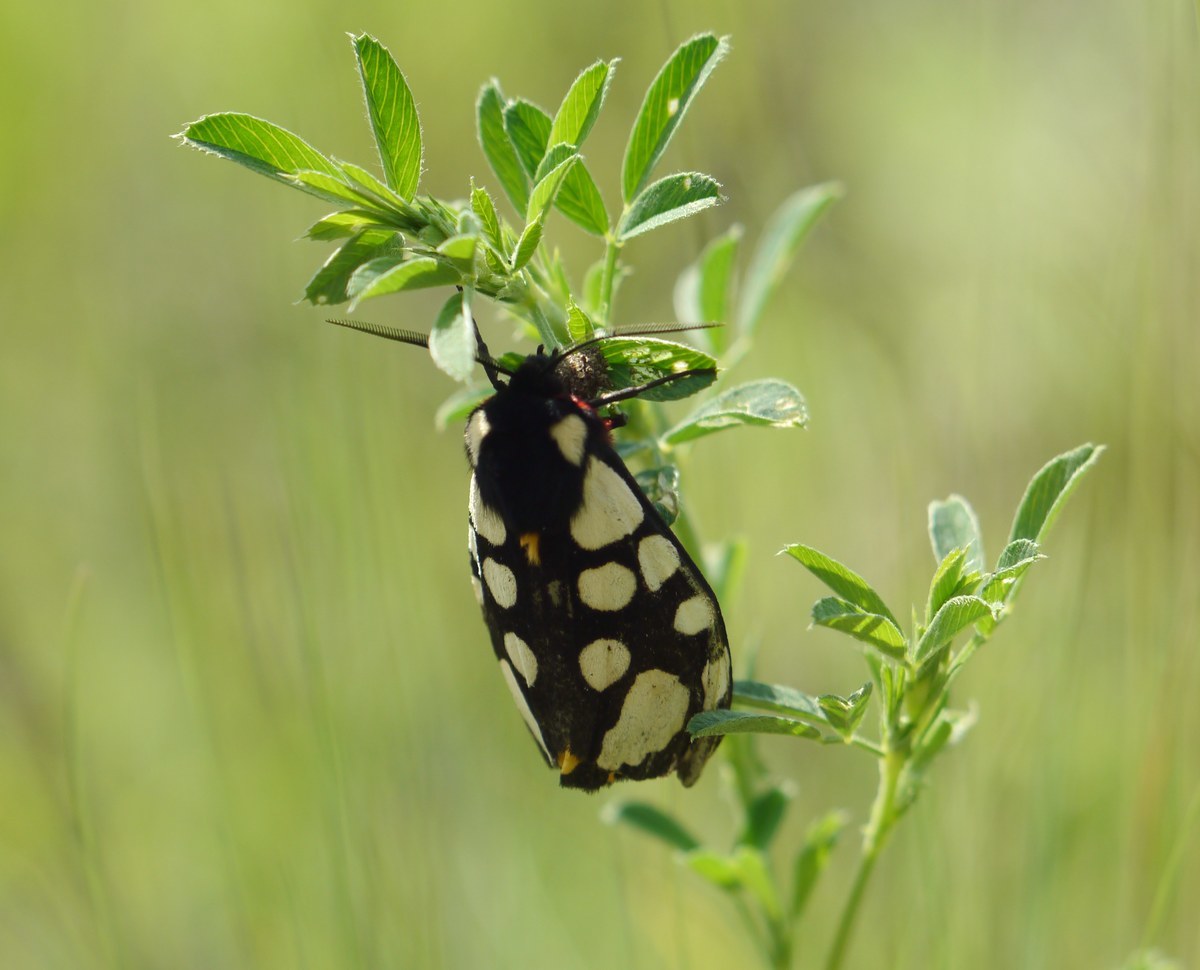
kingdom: Animalia
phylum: Arthropoda
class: Insecta
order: Lepidoptera
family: Erebidae
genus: Epicallia
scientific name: Epicallia villica
